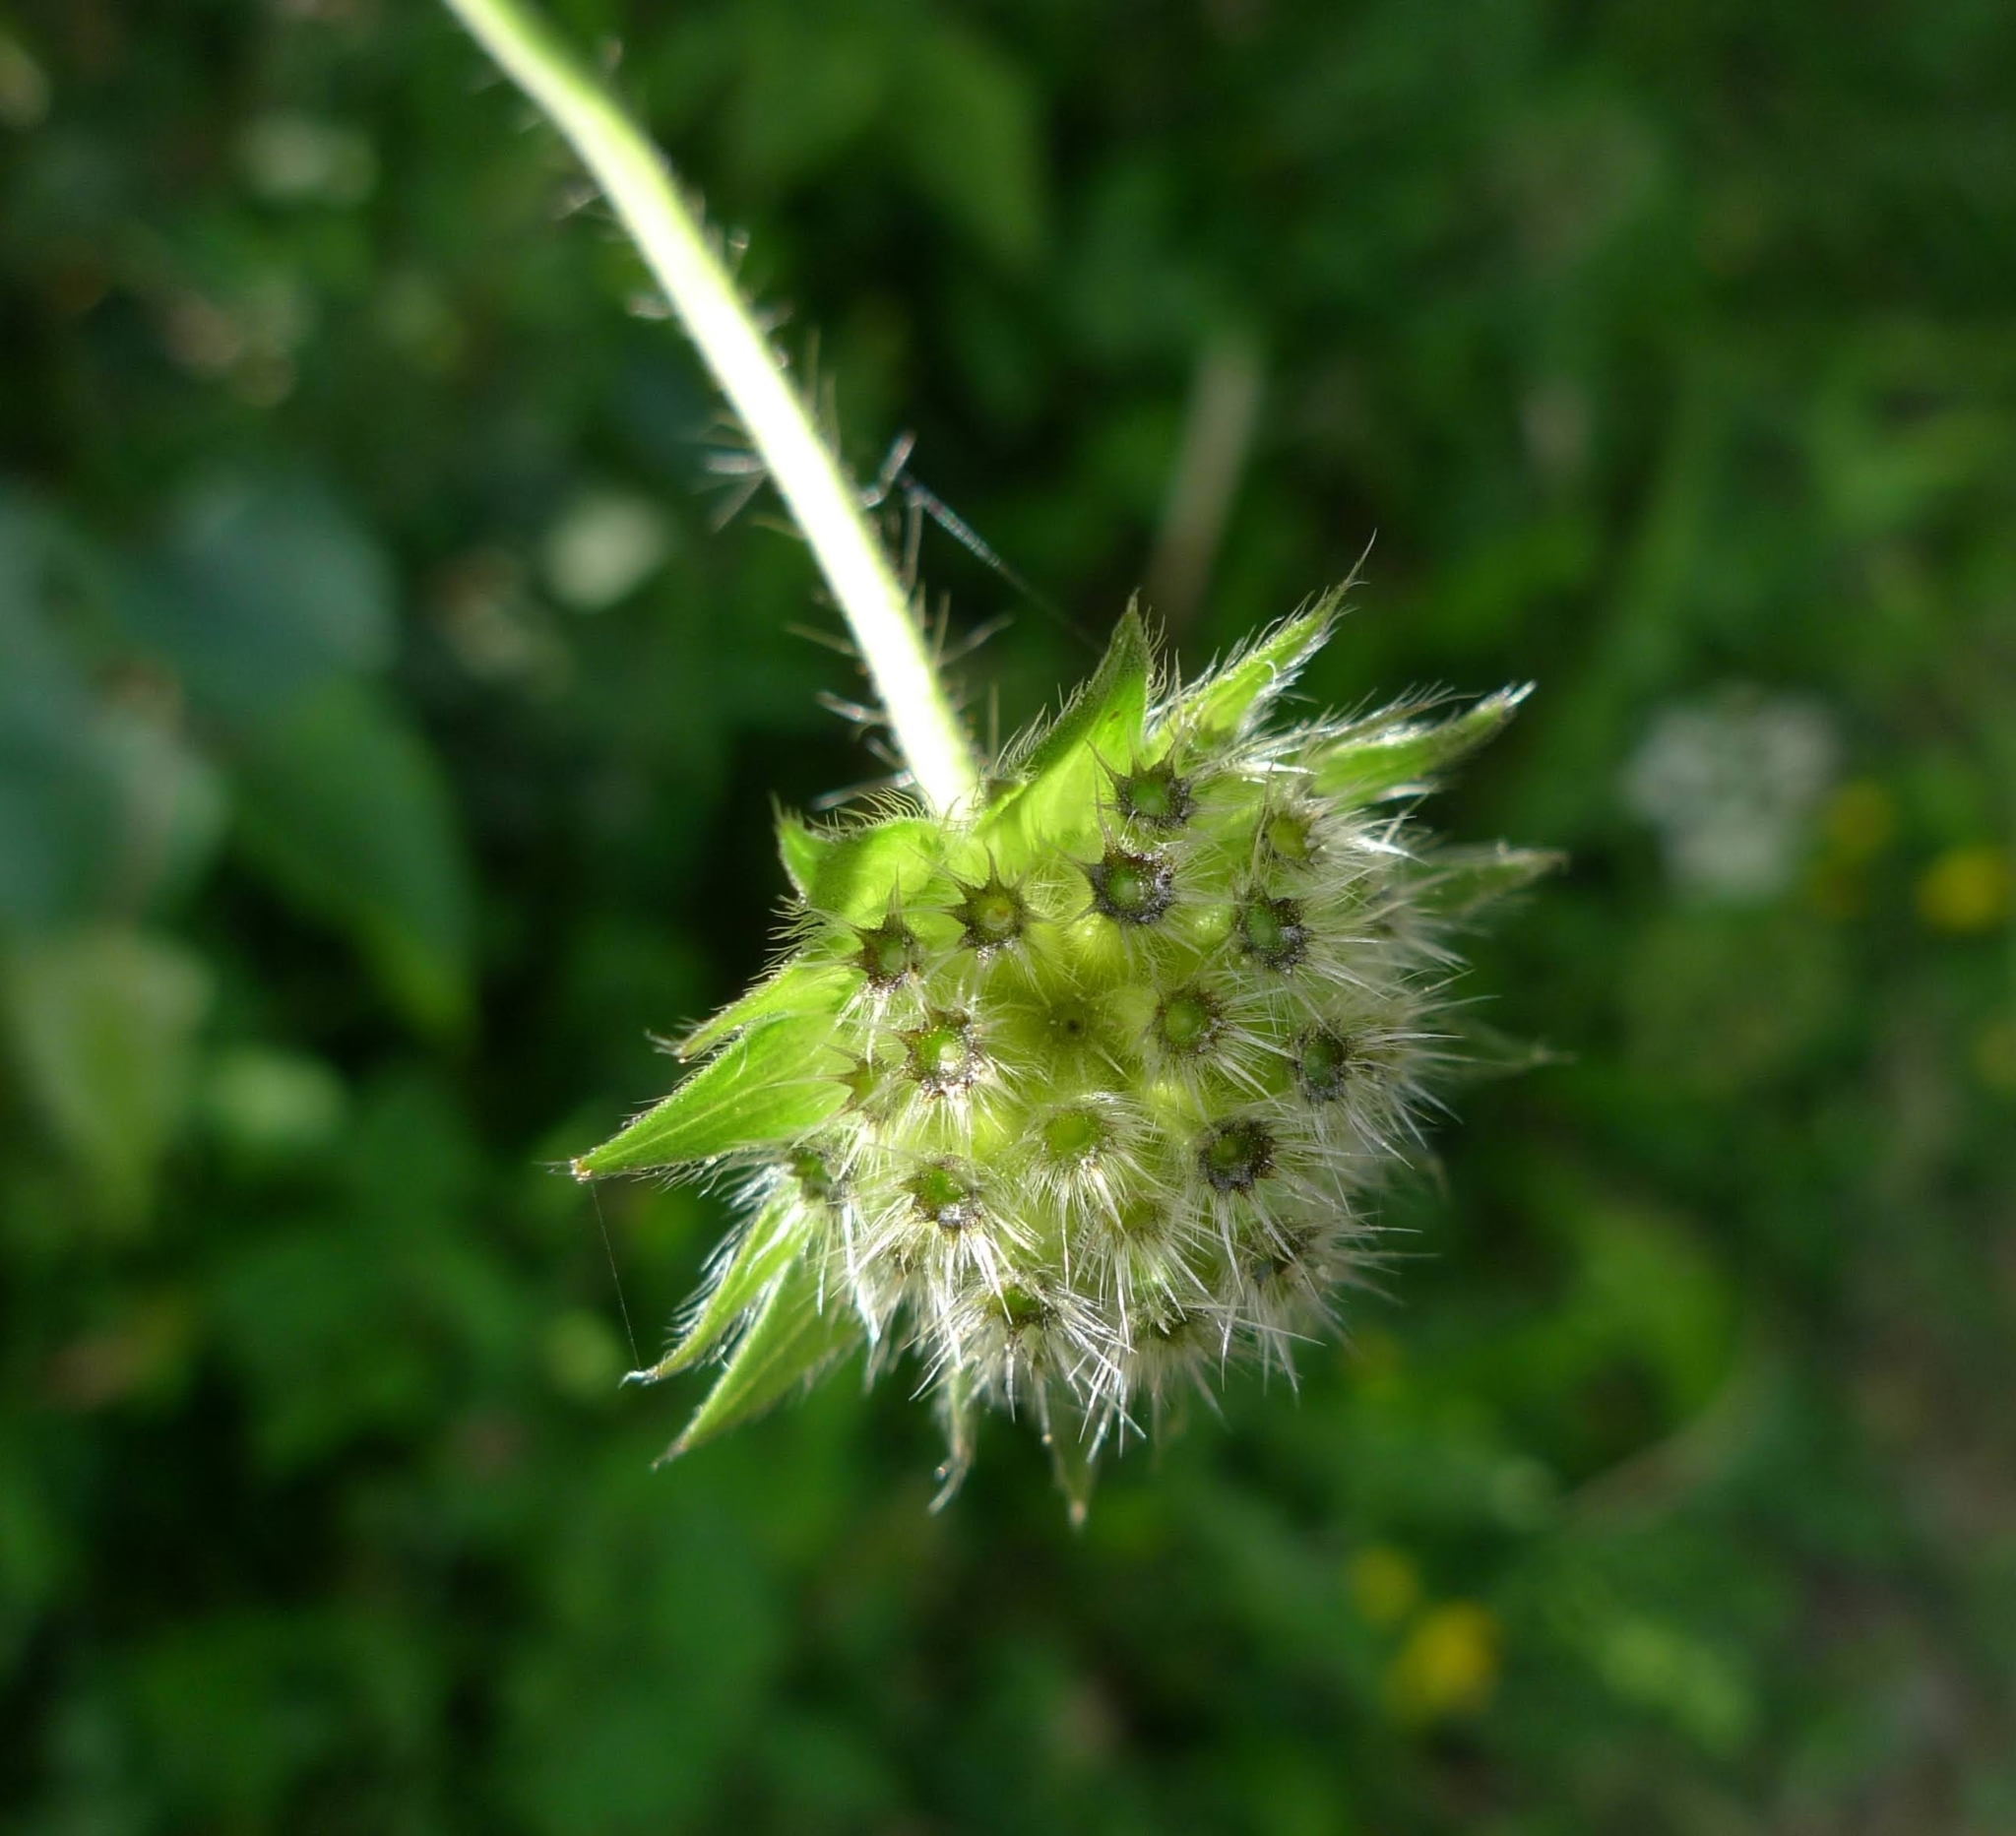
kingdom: Plantae
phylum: Tracheophyta
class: Magnoliopsida
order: Dipsacales
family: Caprifoliaceae
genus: Knautia
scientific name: Knautia arvensis
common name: Field scabiosa
